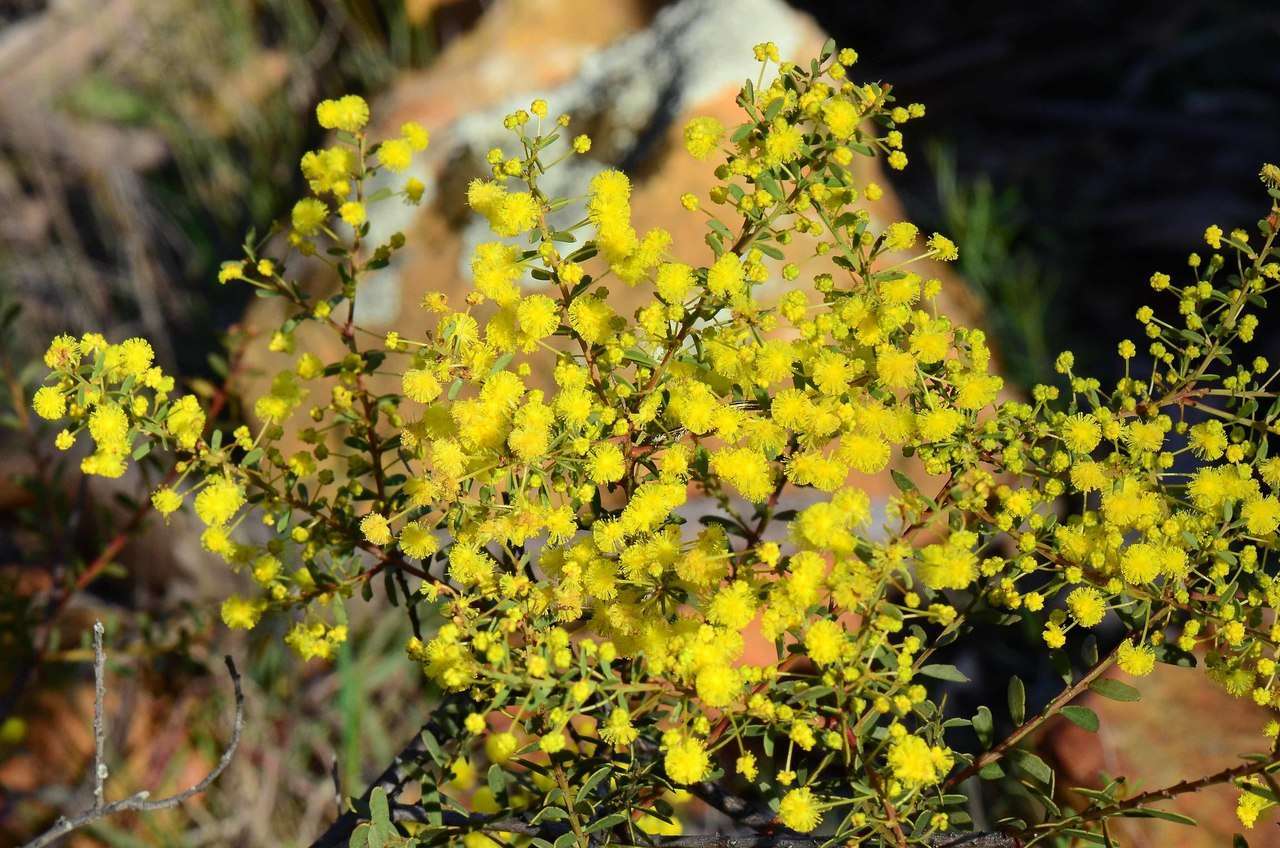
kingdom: Plantae
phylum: Tracheophyta
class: Magnoliopsida
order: Fabales
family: Fabaceae
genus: Acacia
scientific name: Acacia acinacea
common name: Gold-dust acacia
